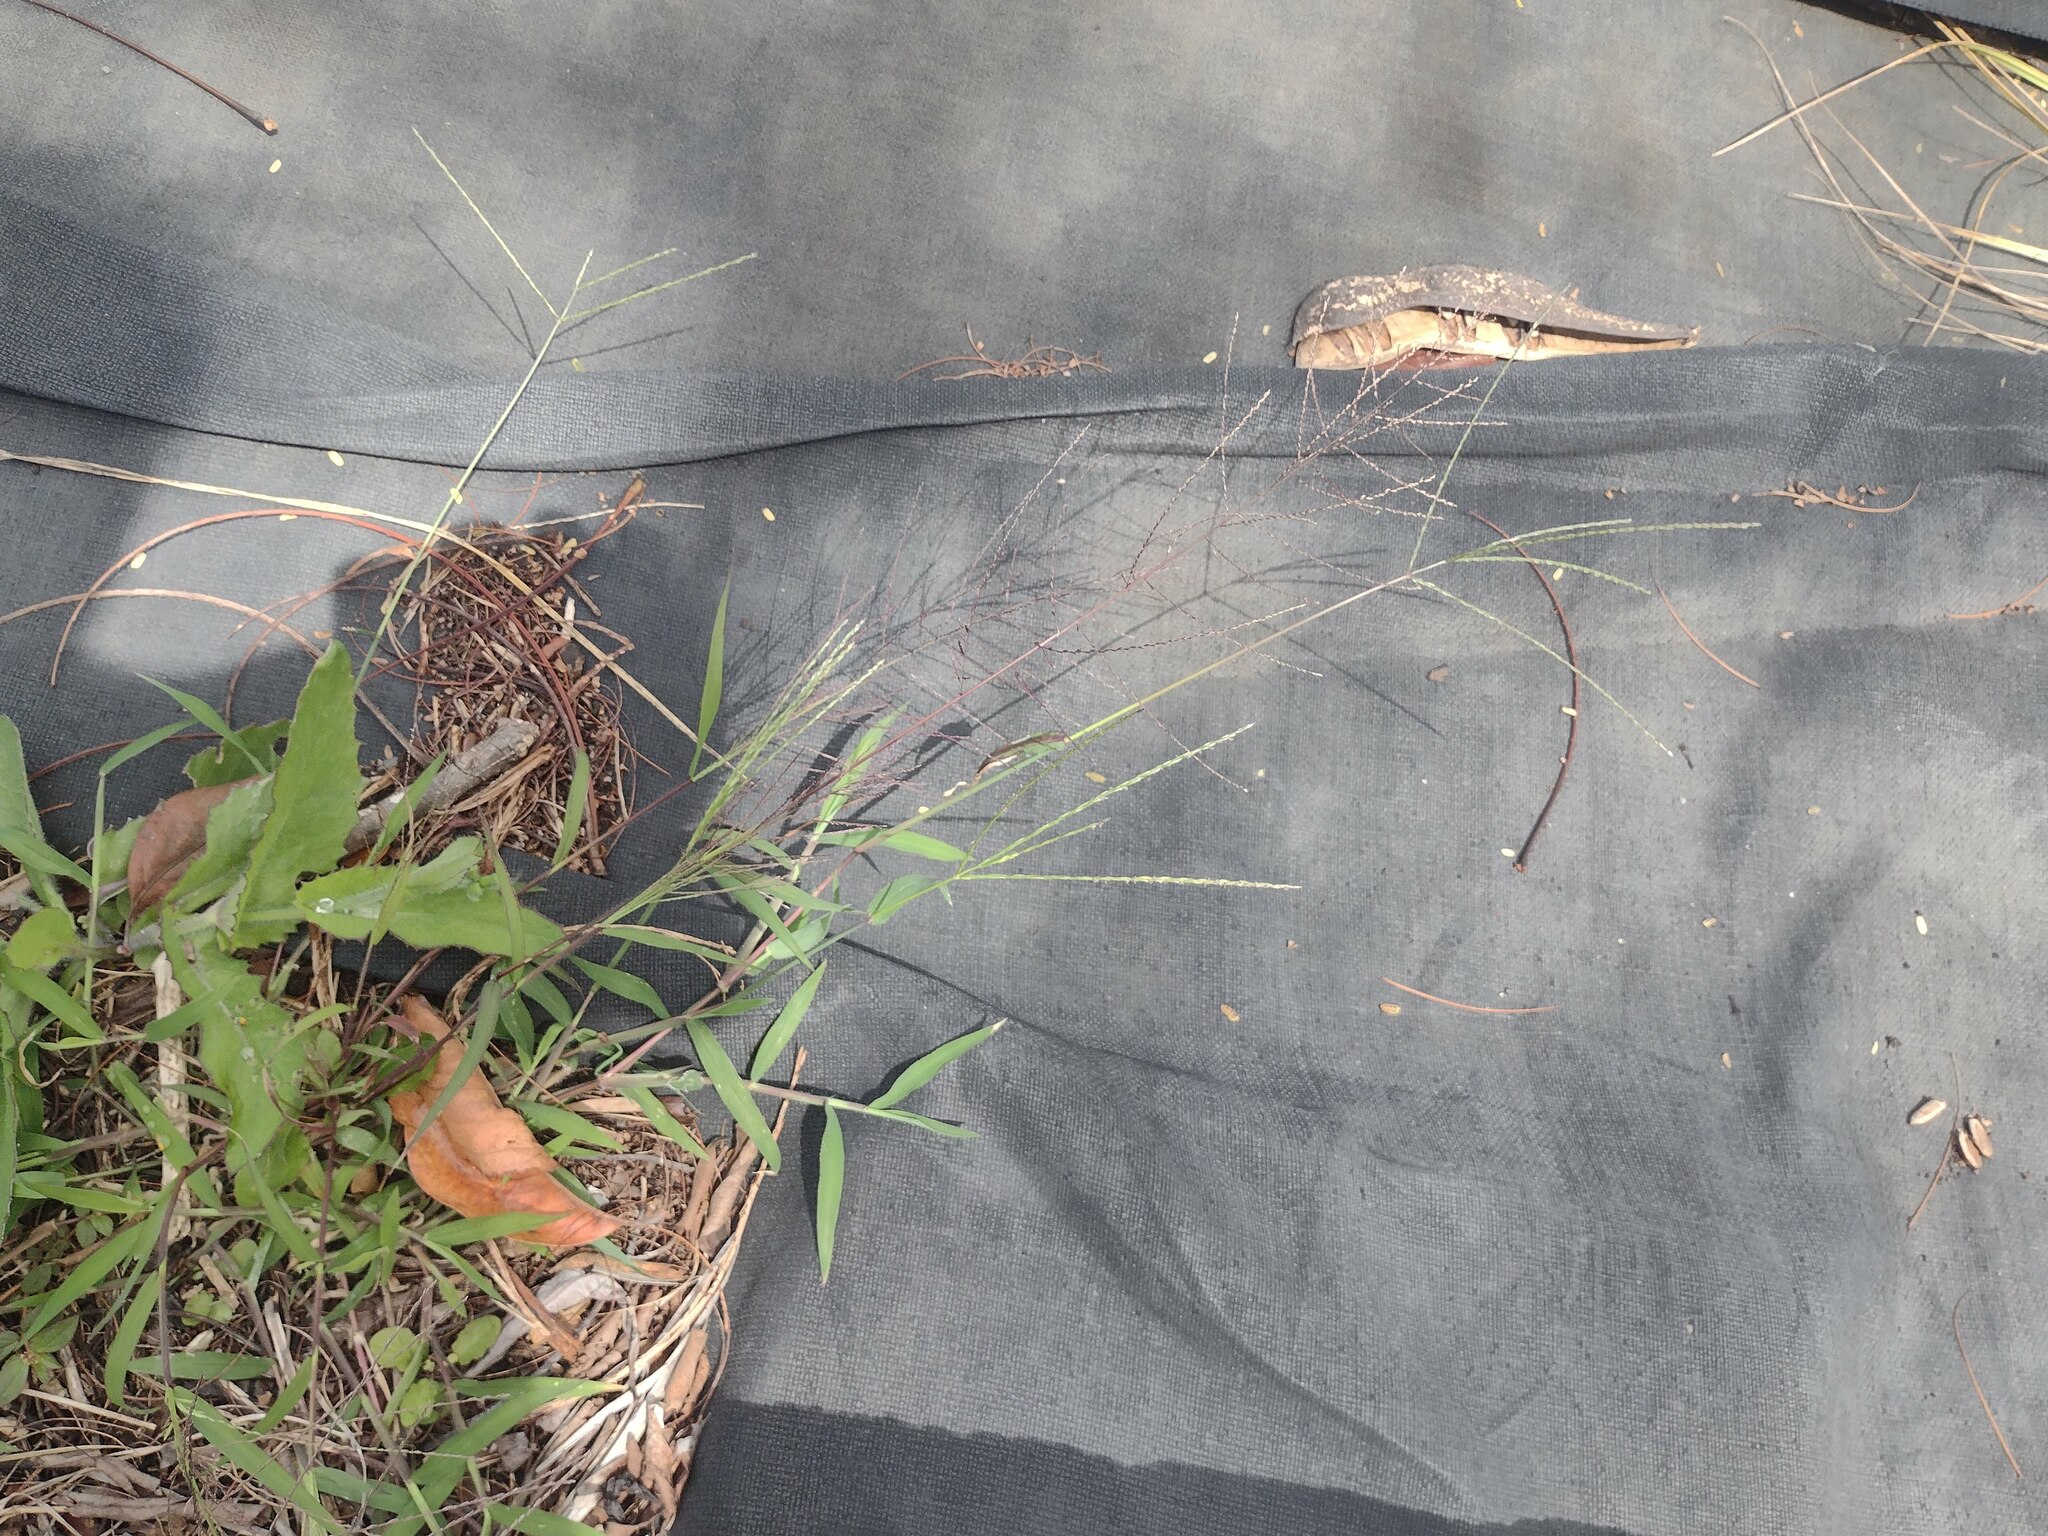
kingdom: Plantae
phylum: Tracheophyta
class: Liliopsida
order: Poales
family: Poaceae
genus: Leptochloa
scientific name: Leptochloa panicea
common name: Mucronate sprangletop
